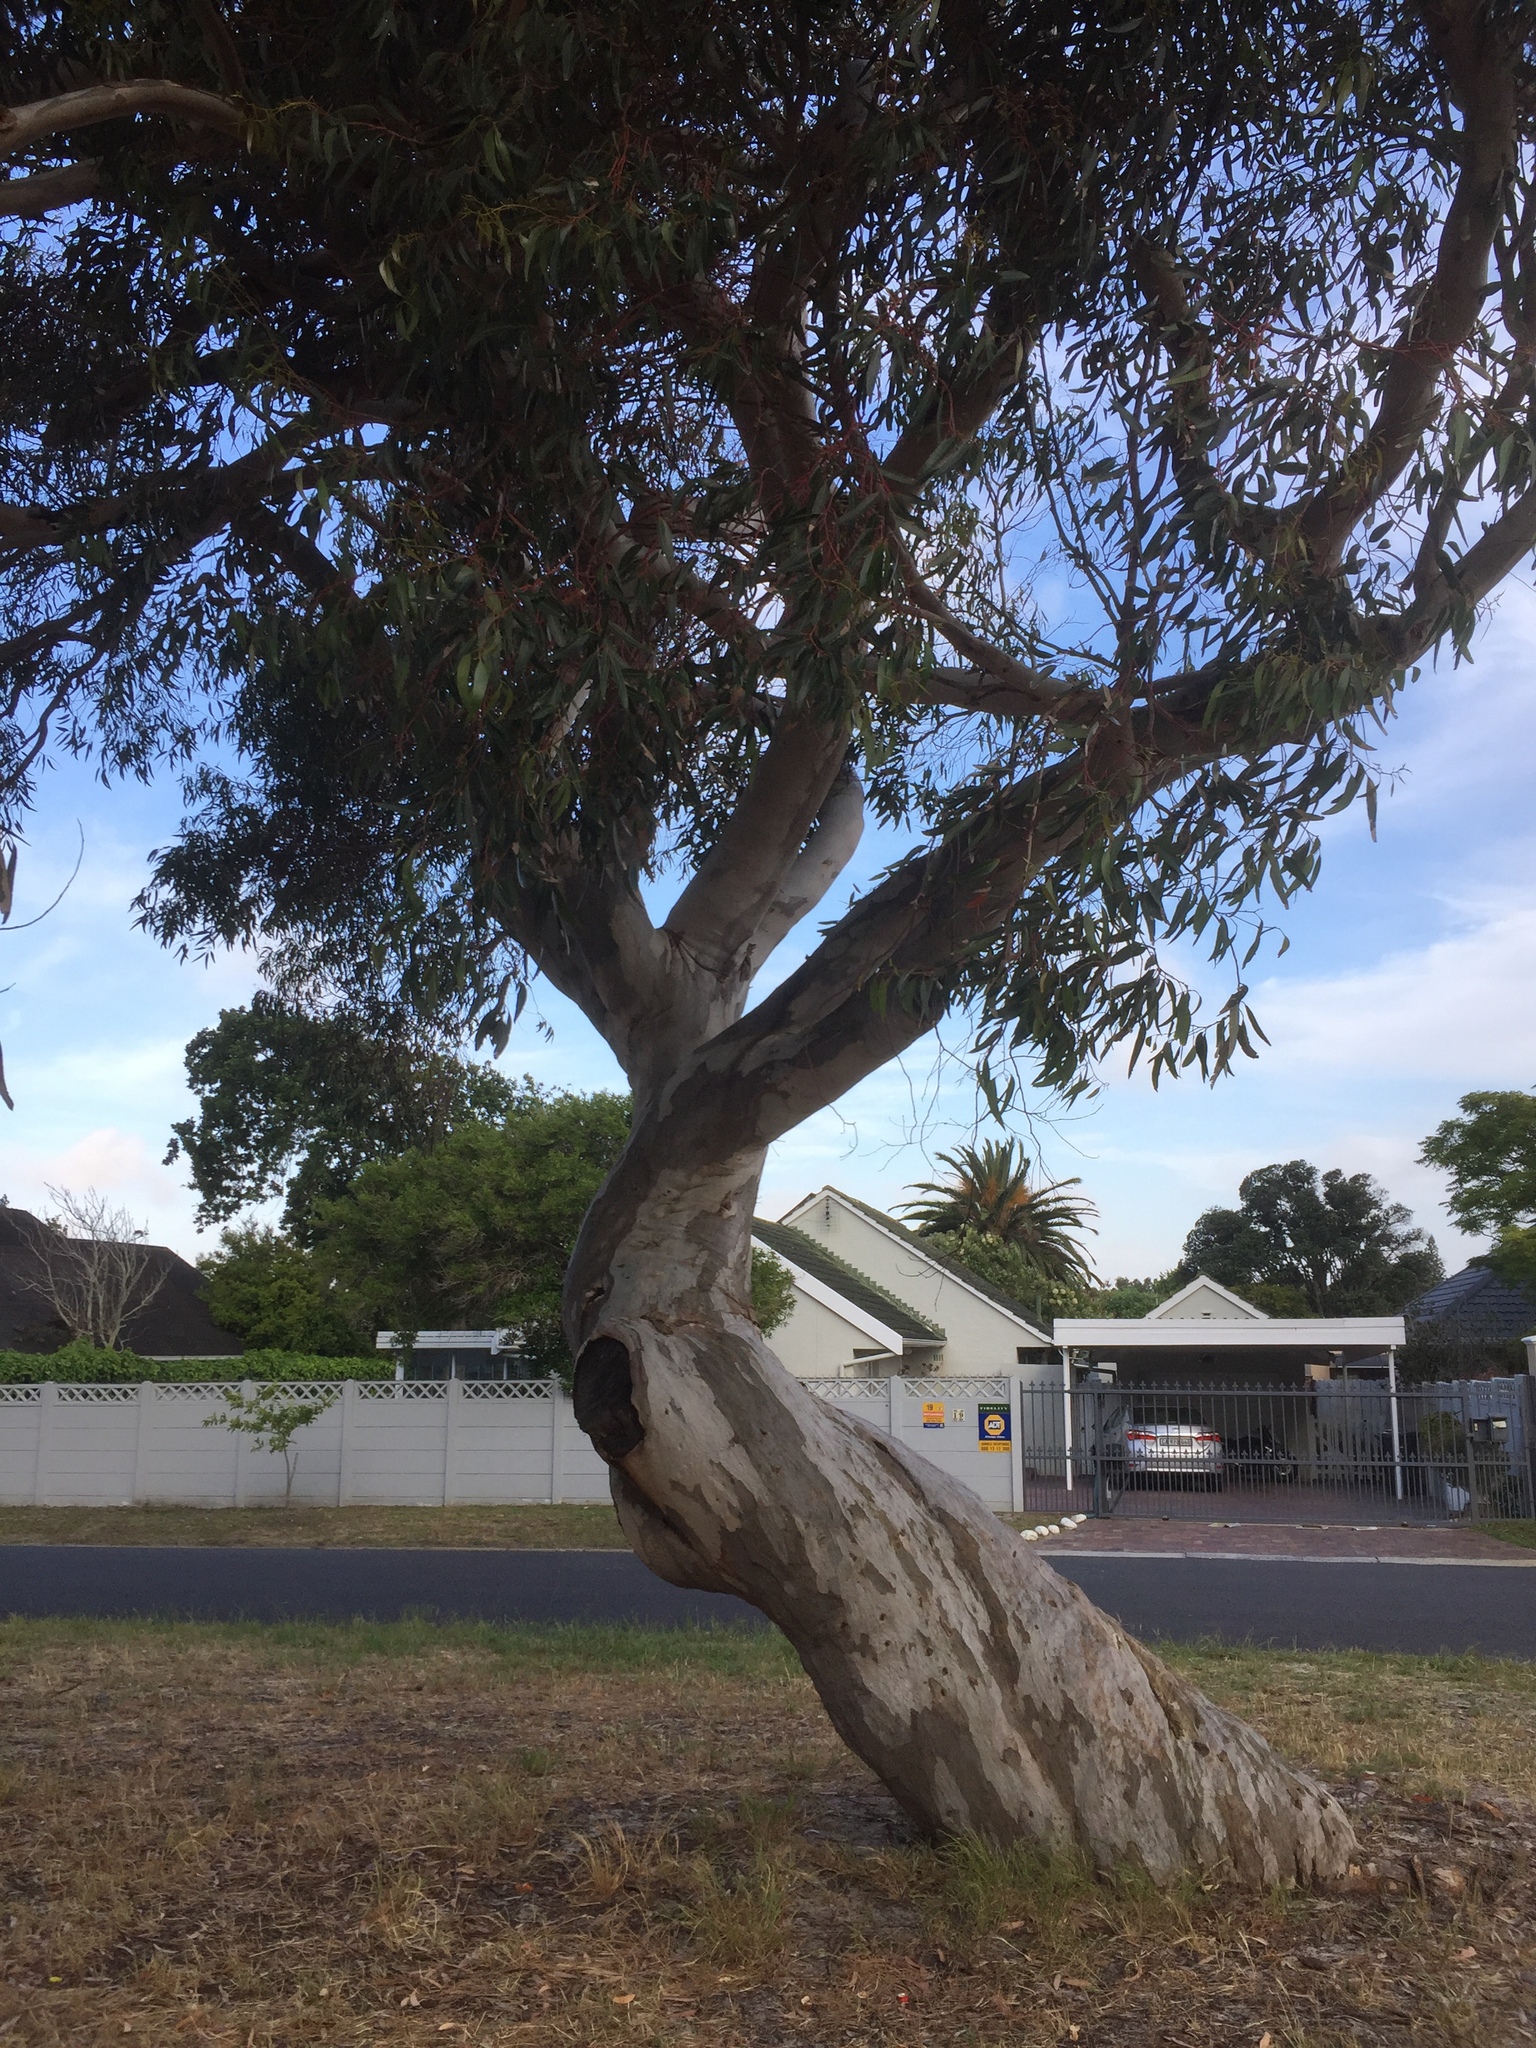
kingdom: Plantae
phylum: Tracheophyta
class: Magnoliopsida
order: Myrtales
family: Myrtaceae
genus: Eucalyptus
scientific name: Eucalyptus cladocalyx
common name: Sugargum
